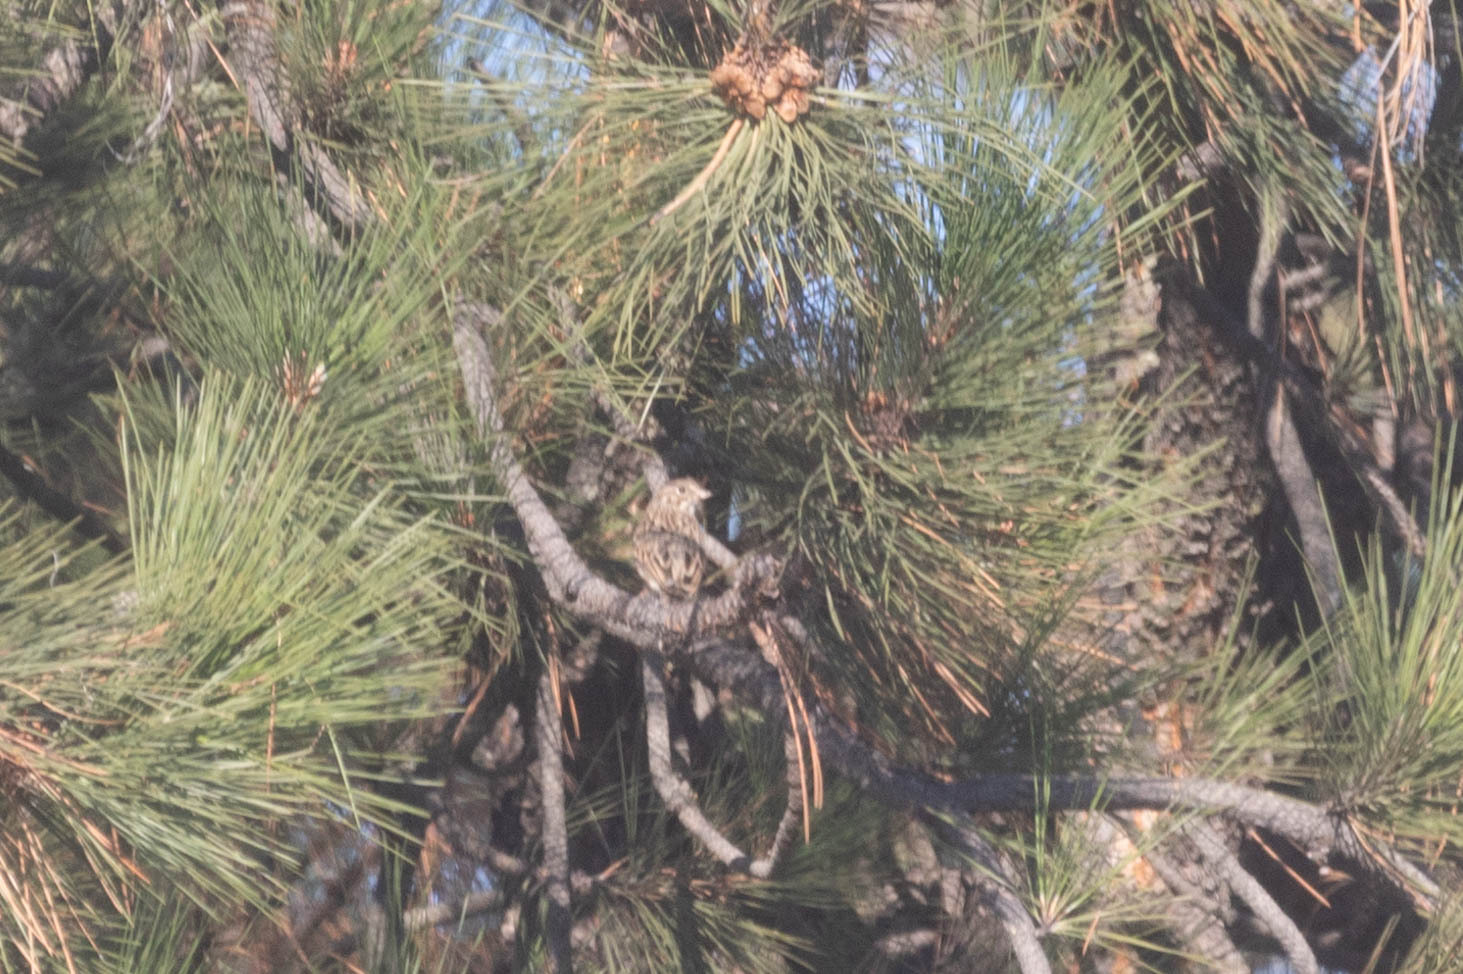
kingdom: Animalia
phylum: Chordata
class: Aves
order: Passeriformes
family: Passerellidae
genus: Pooecetes
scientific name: Pooecetes gramineus
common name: Vesper sparrow
